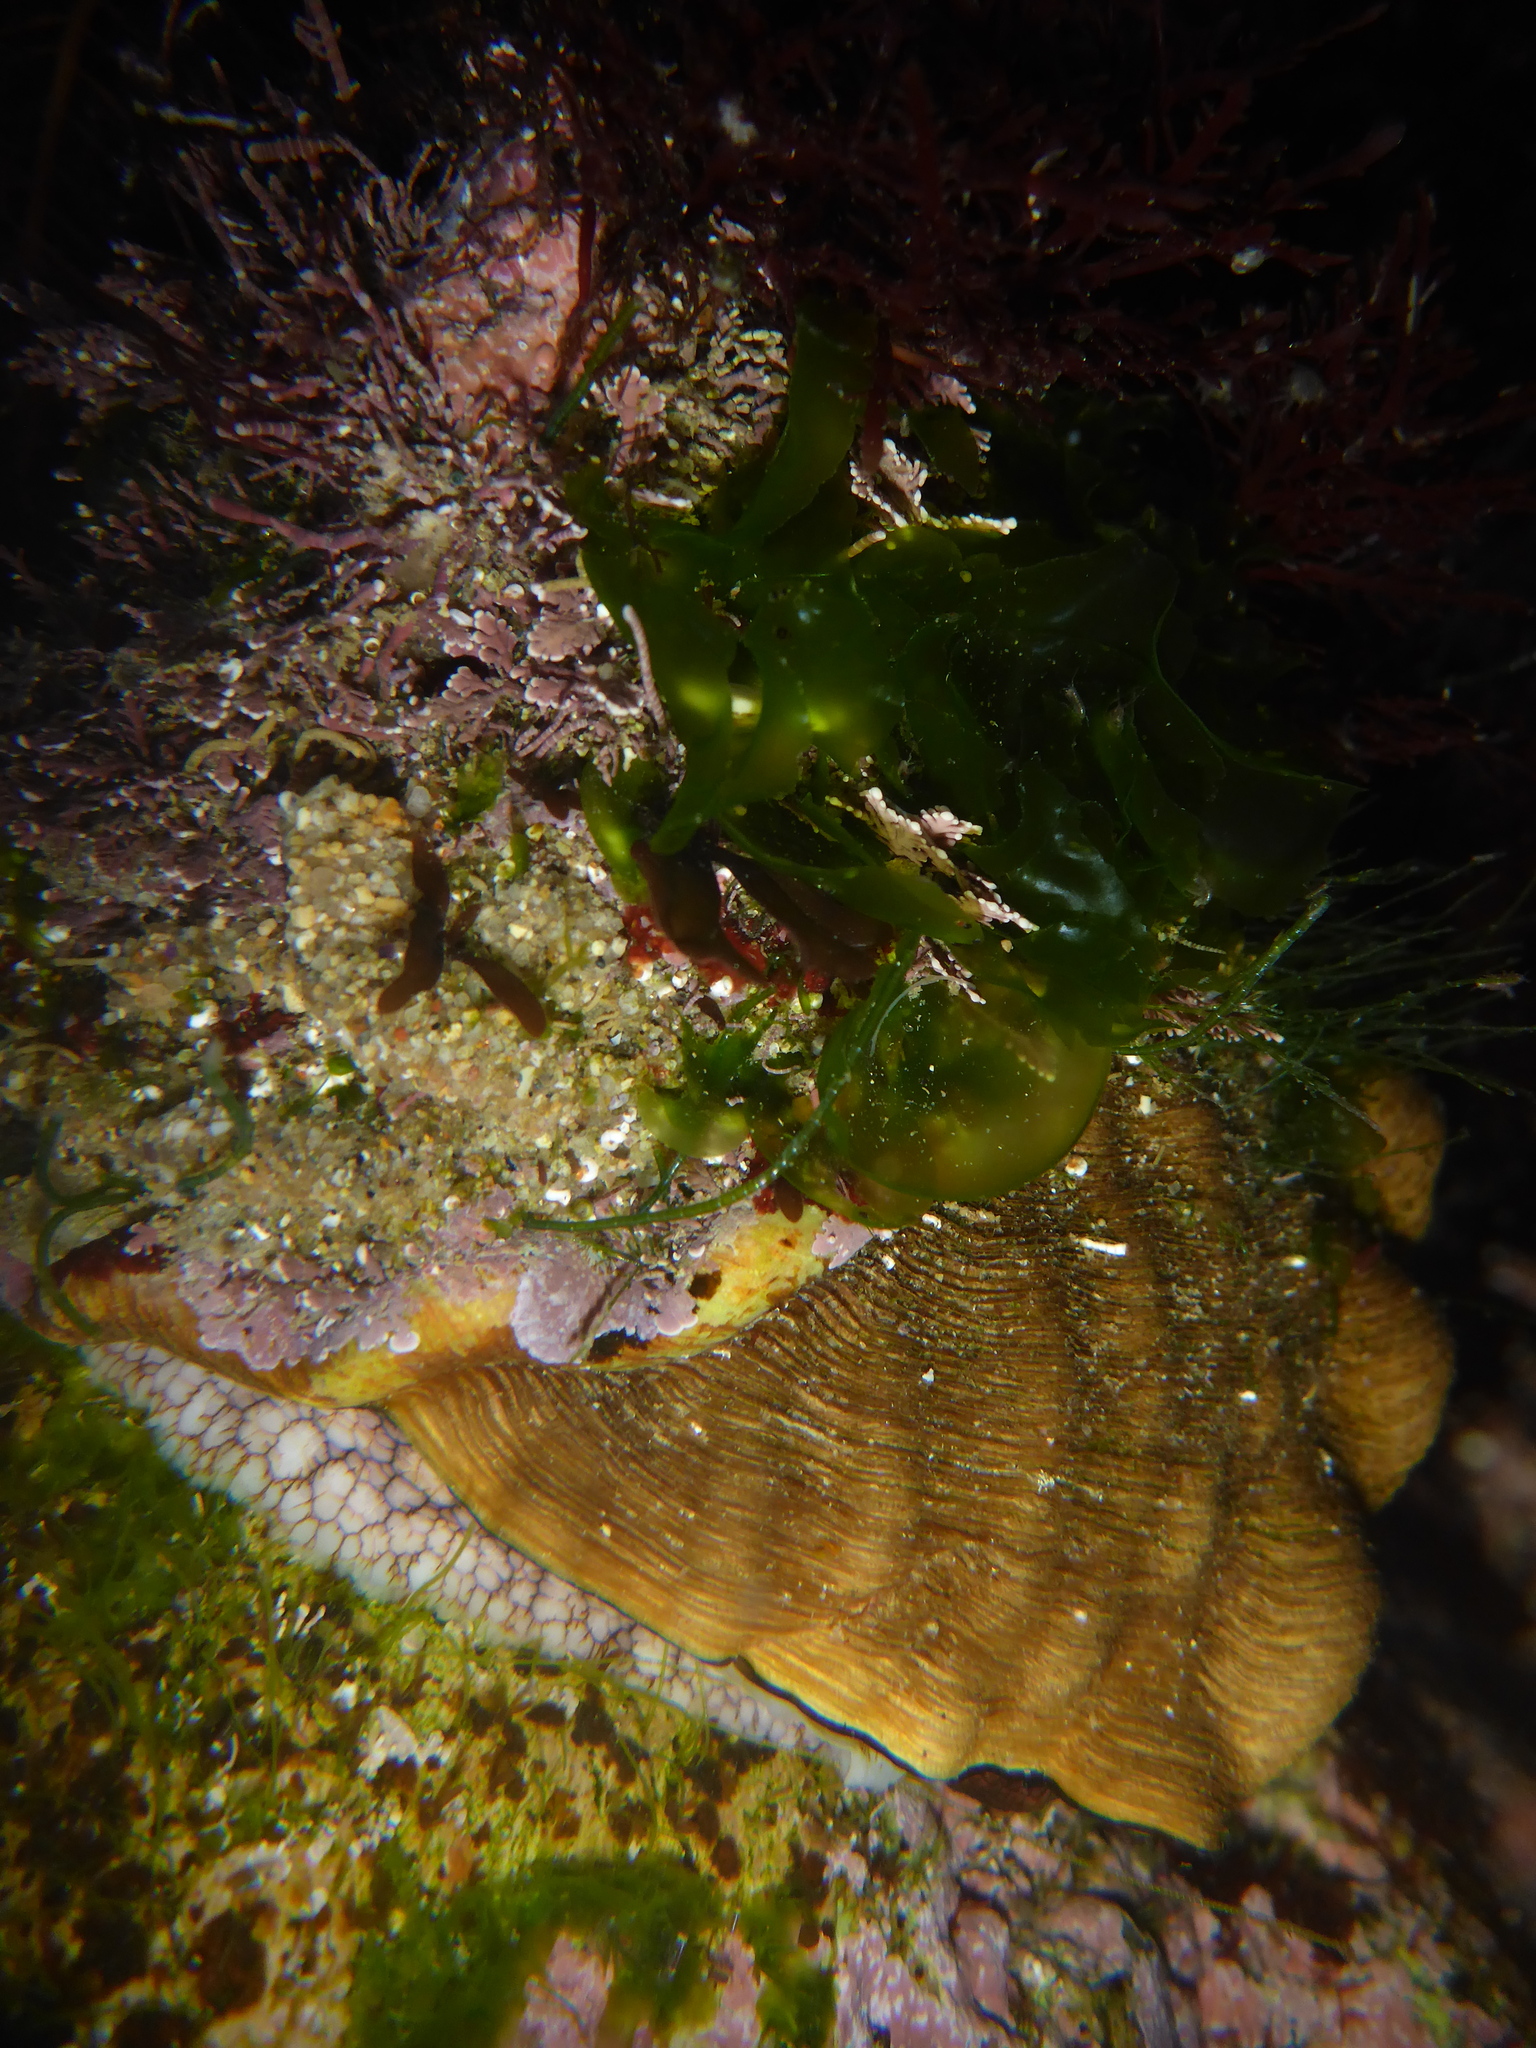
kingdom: Animalia
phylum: Mollusca
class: Gastropoda
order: Trochida
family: Turbinidae
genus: Megastraea
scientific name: Megastraea undosa
